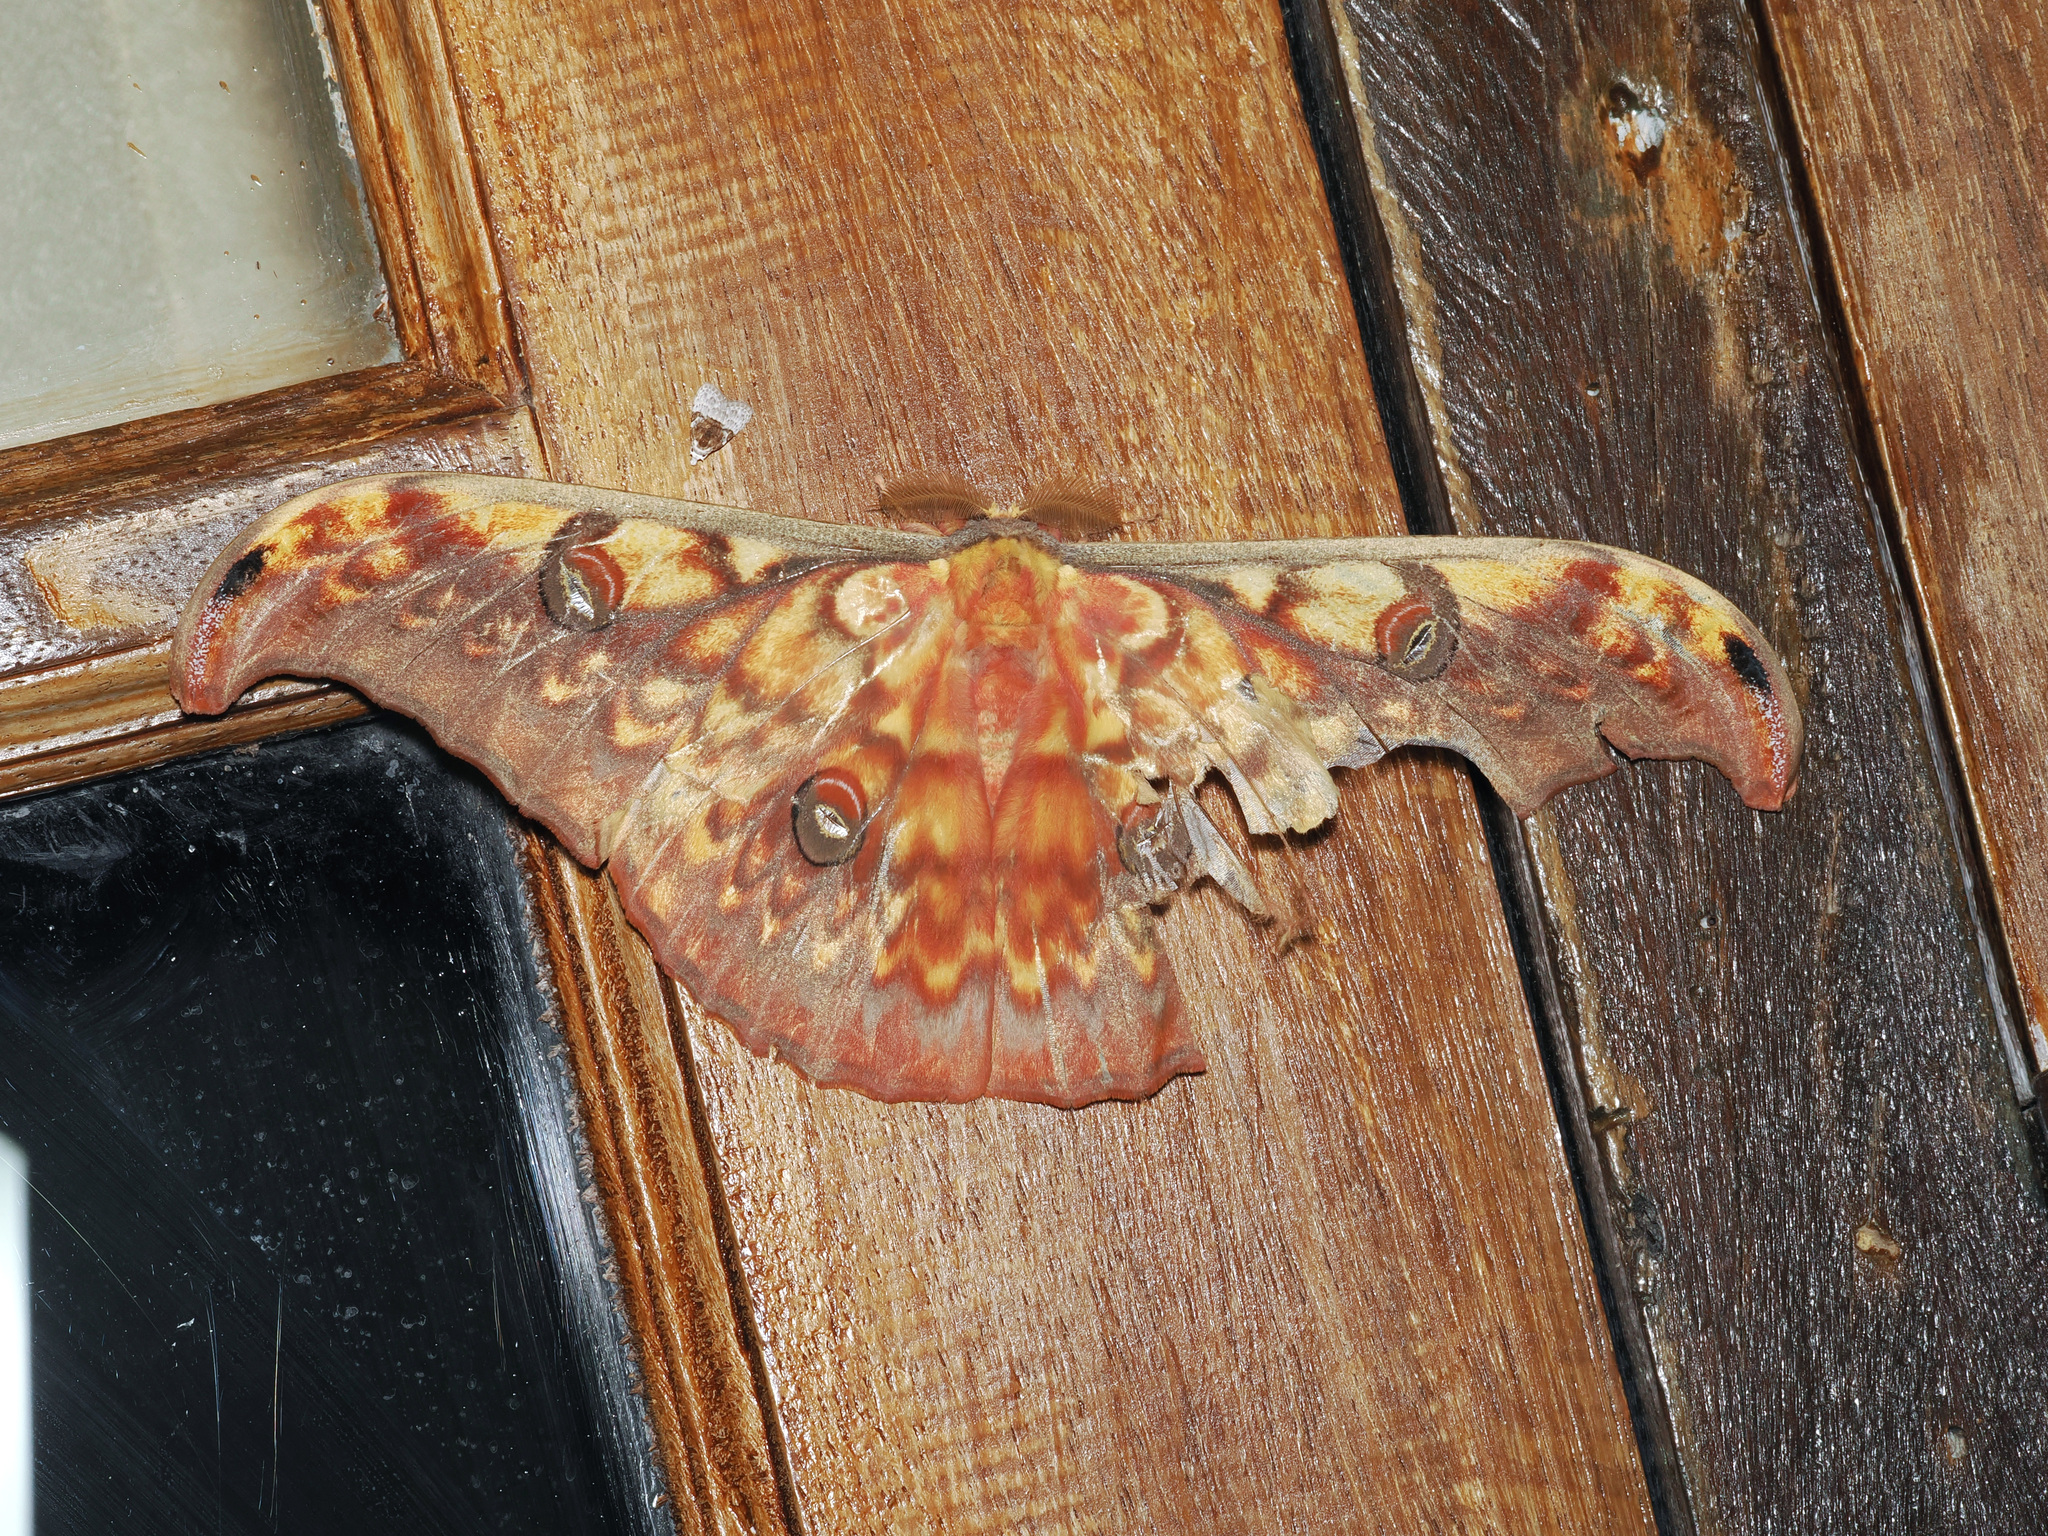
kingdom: Animalia
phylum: Arthropoda
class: Insecta
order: Lepidoptera
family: Saturniidae
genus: Antheraea
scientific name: Antheraea larissa
